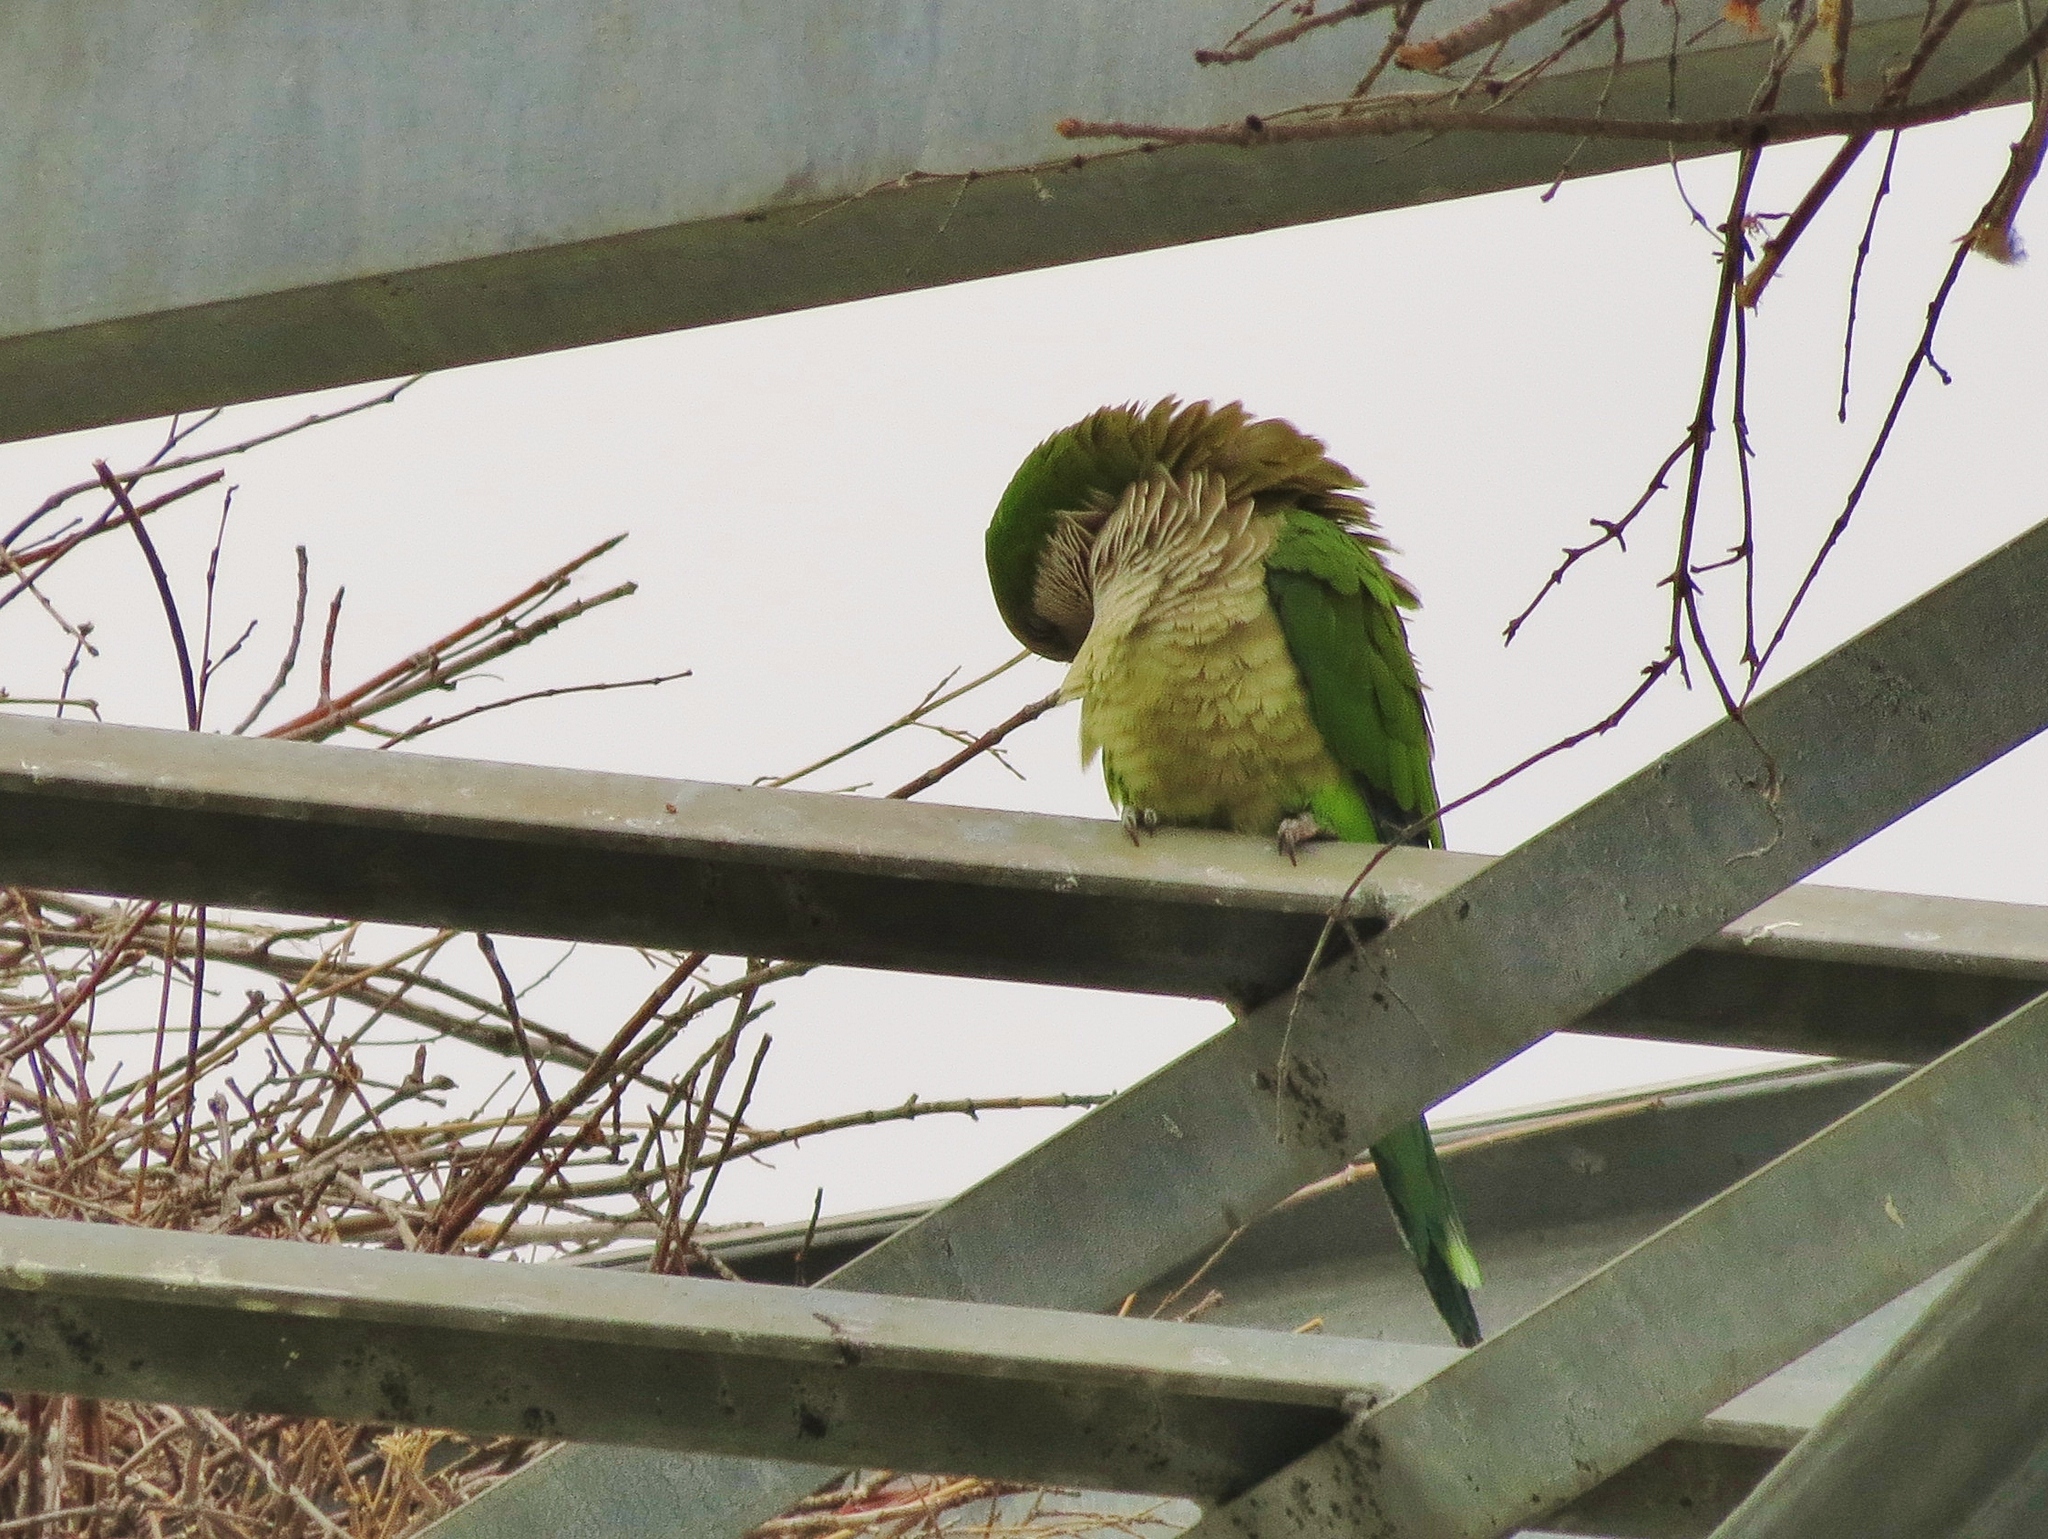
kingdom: Animalia
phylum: Chordata
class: Aves
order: Psittaciformes
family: Psittacidae
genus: Myiopsitta
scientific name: Myiopsitta monachus
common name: Monk parakeet
